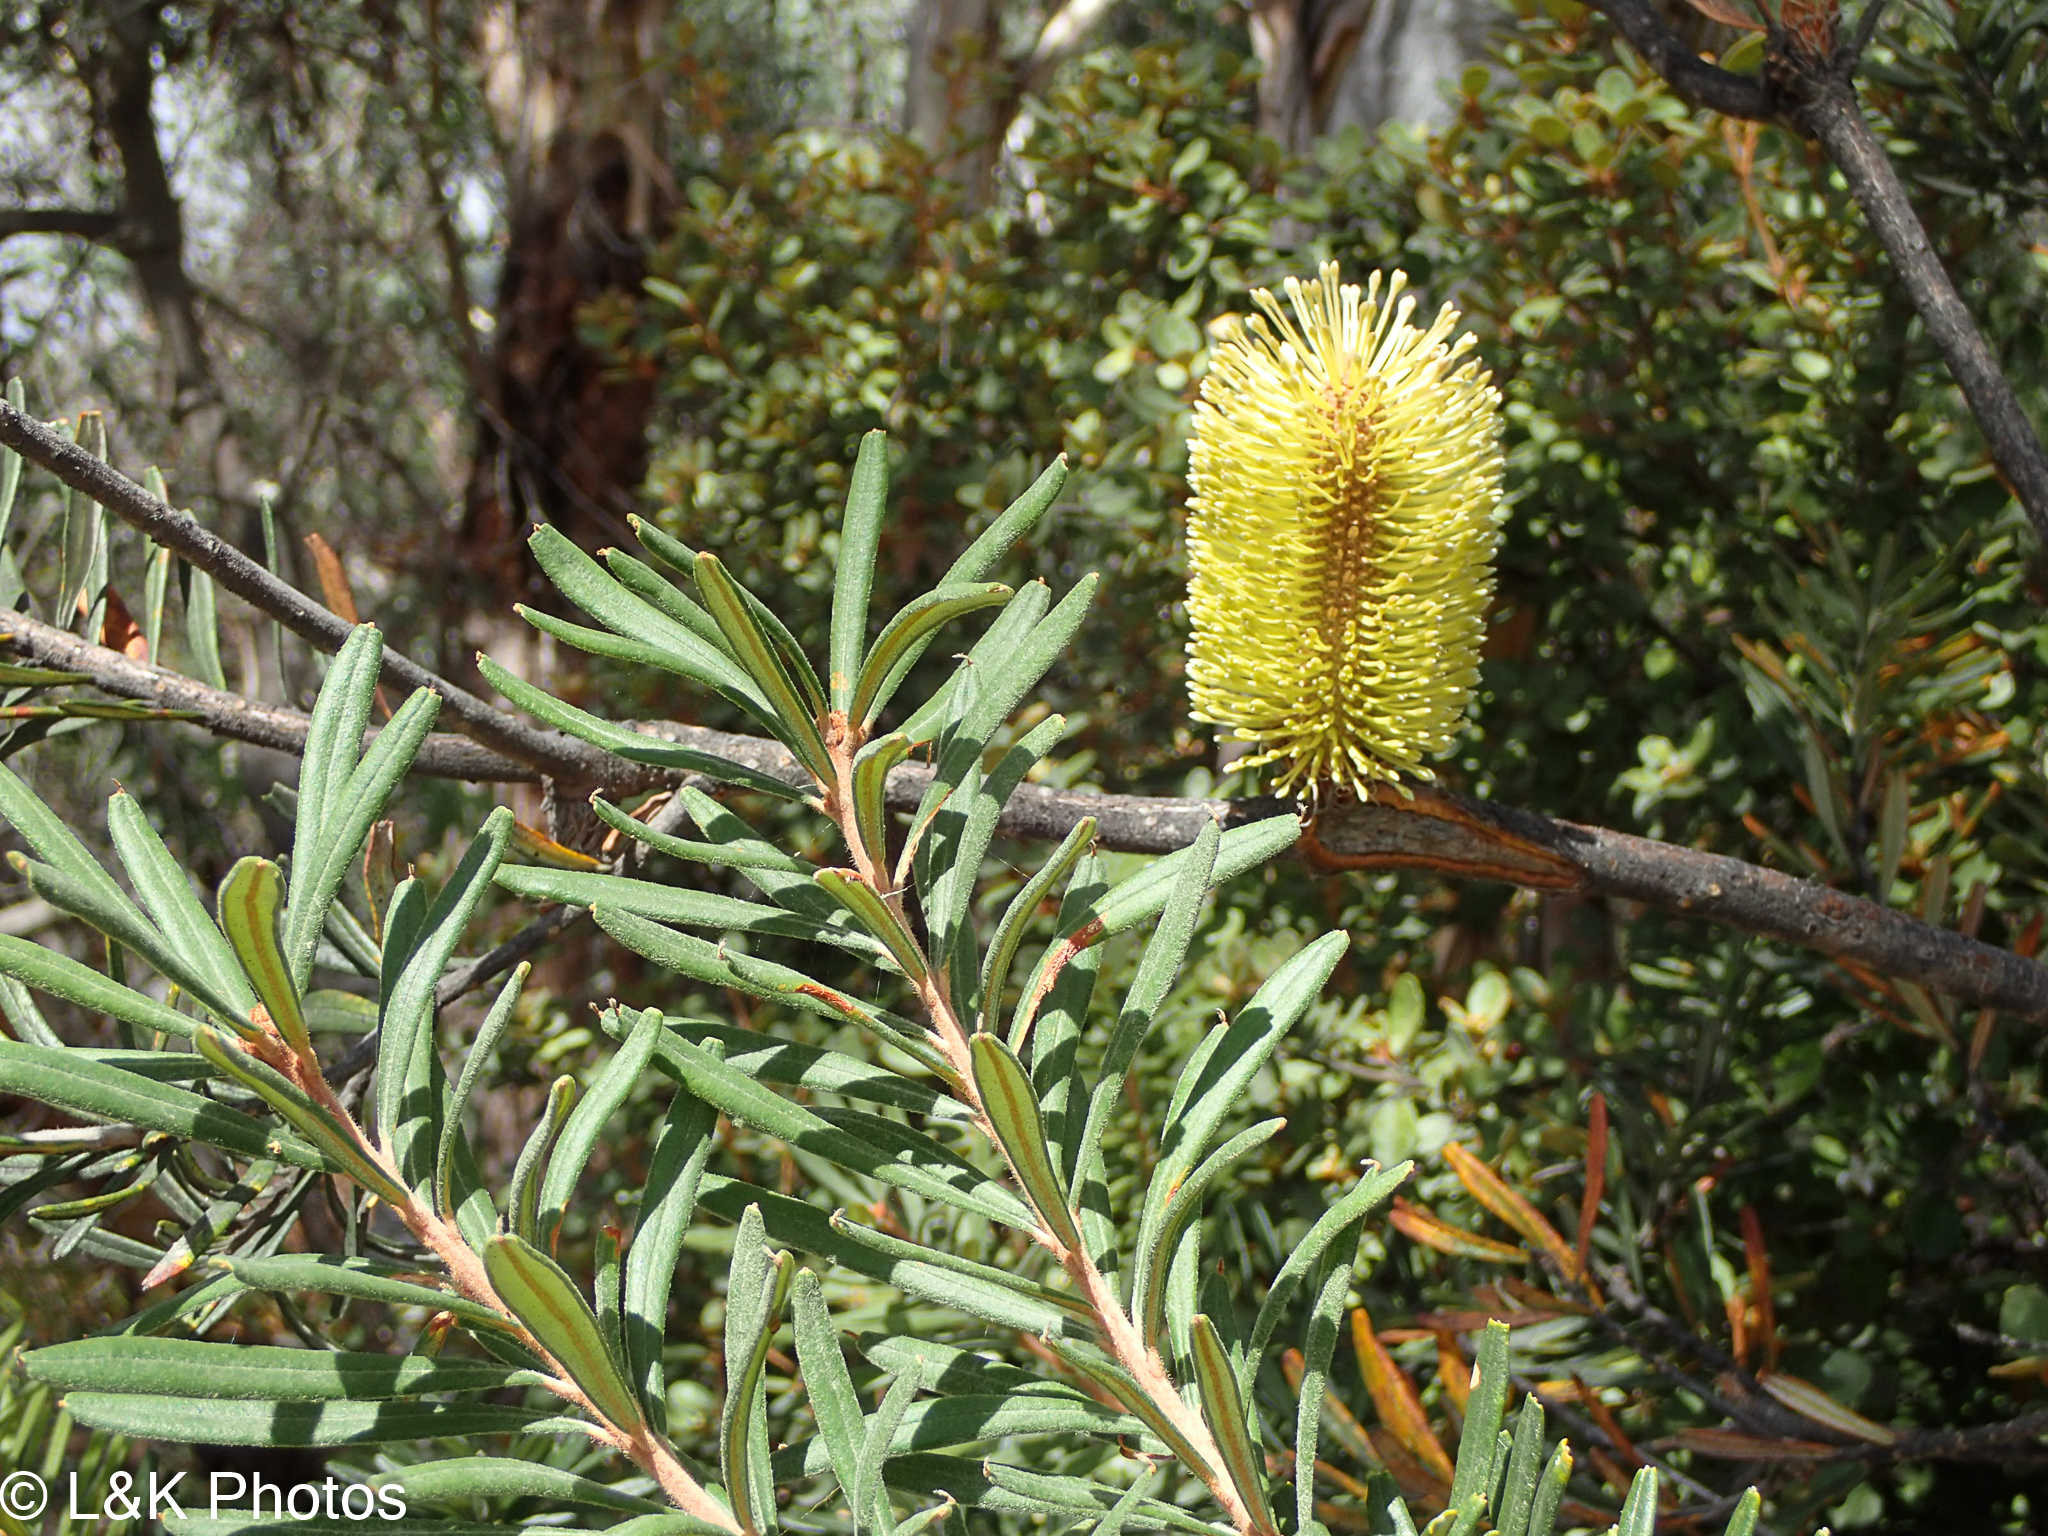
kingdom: Plantae
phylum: Tracheophyta
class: Magnoliopsida
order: Proteales
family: Proteaceae
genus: Banksia
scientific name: Banksia marginata
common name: Silver banksia
